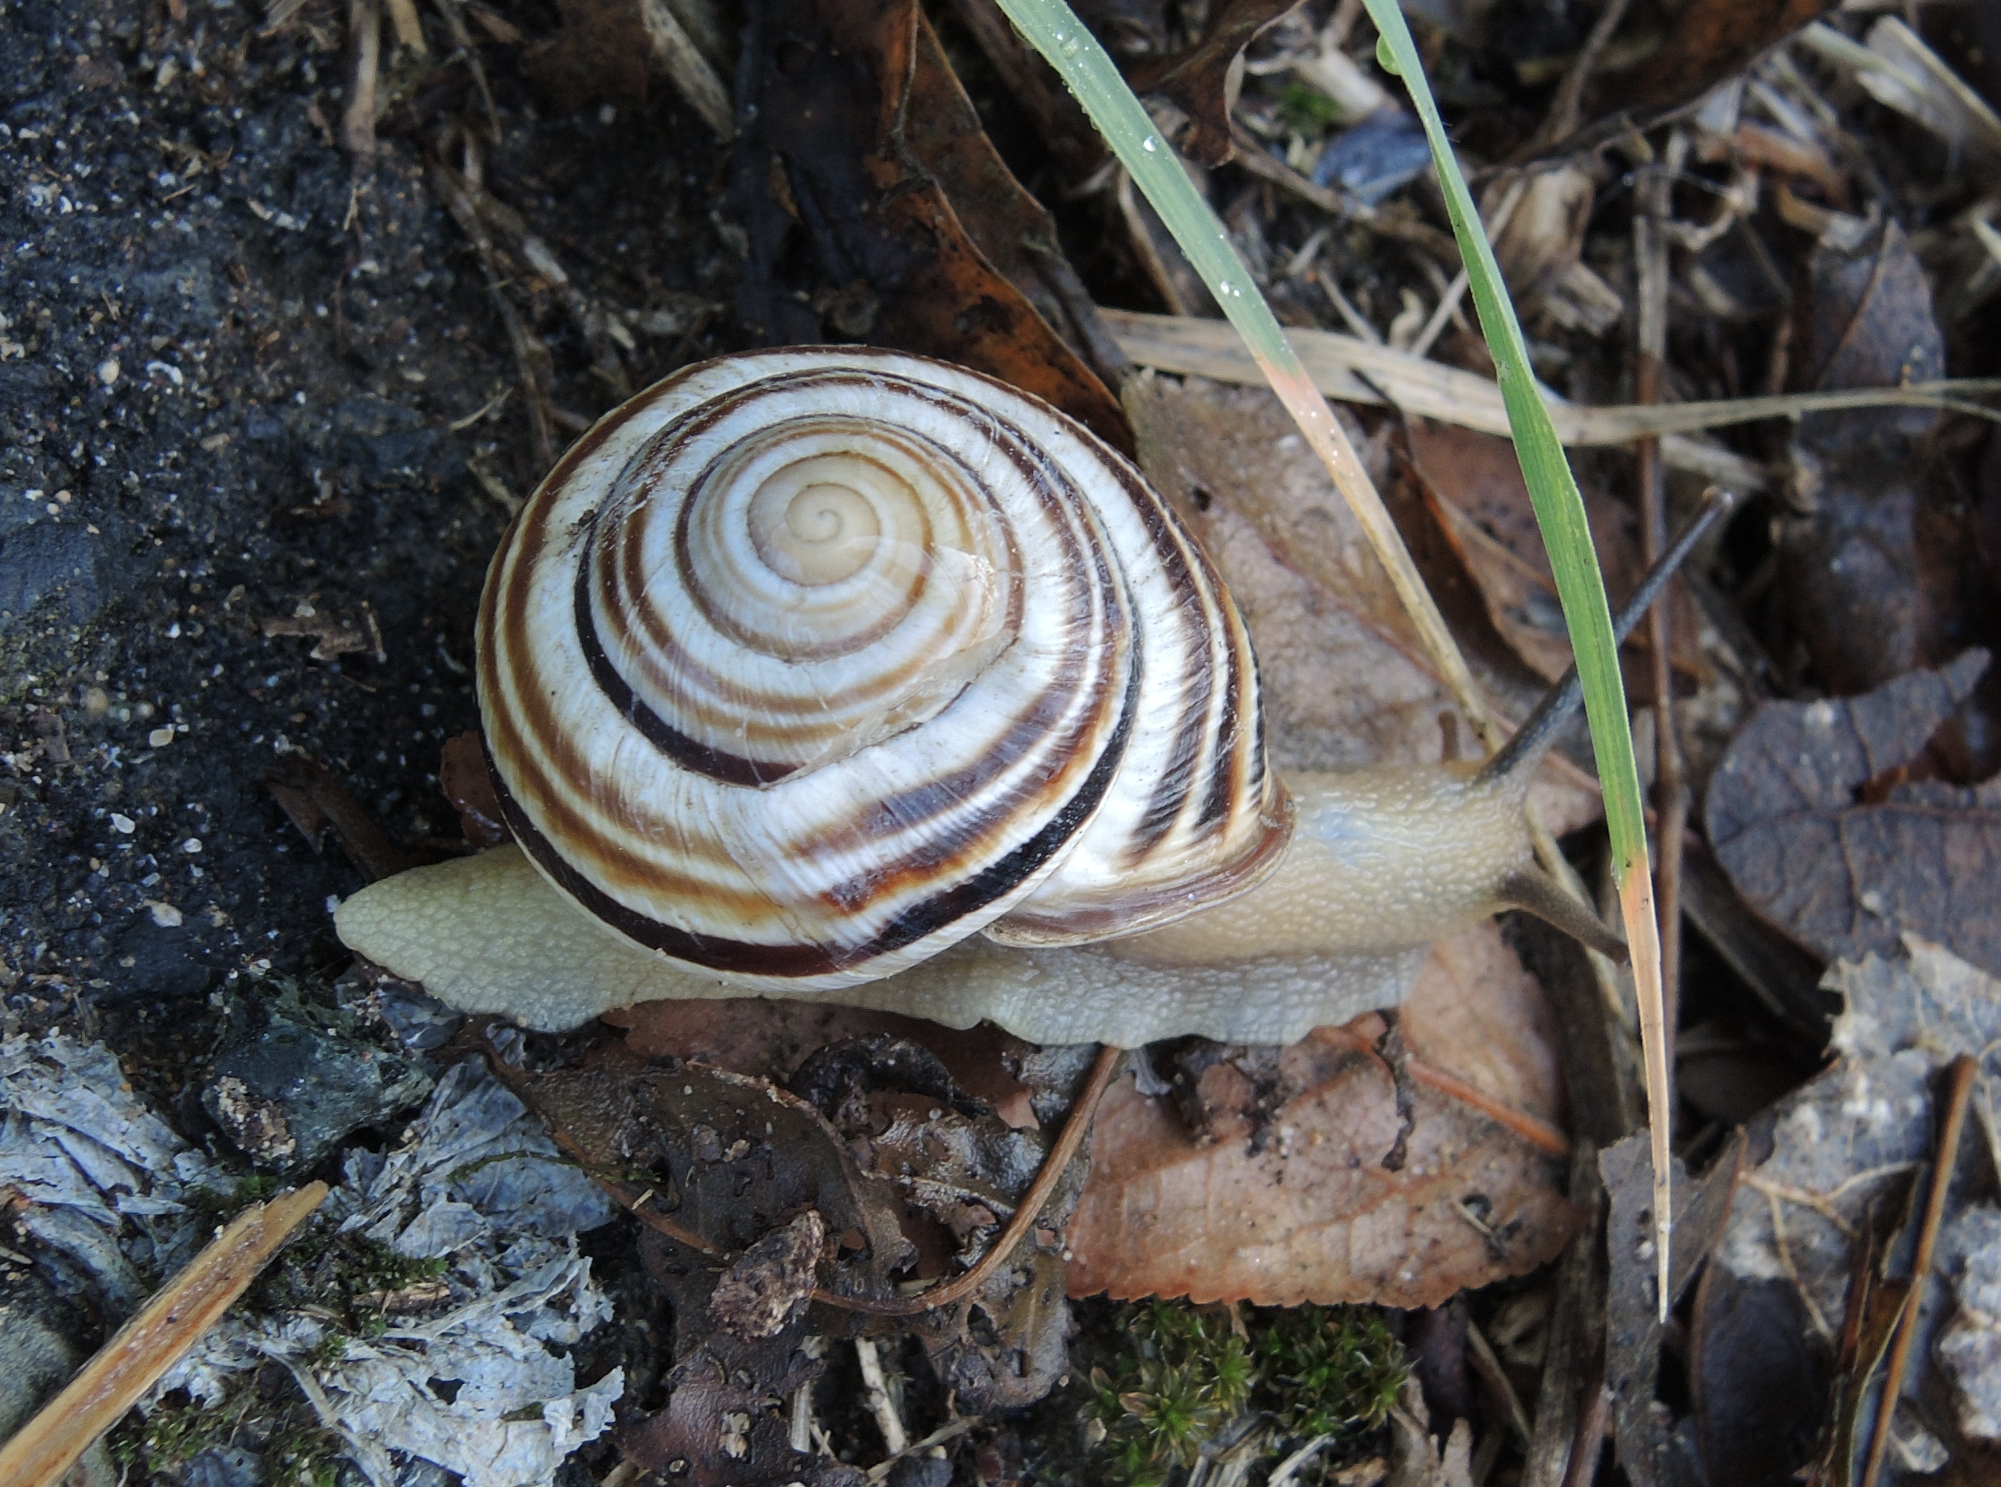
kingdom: Animalia
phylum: Mollusca
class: Gastropoda
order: Stylommatophora
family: Helicidae
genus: Caucasotachea
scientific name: Caucasotachea vindobonensis
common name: European helicid land snail
